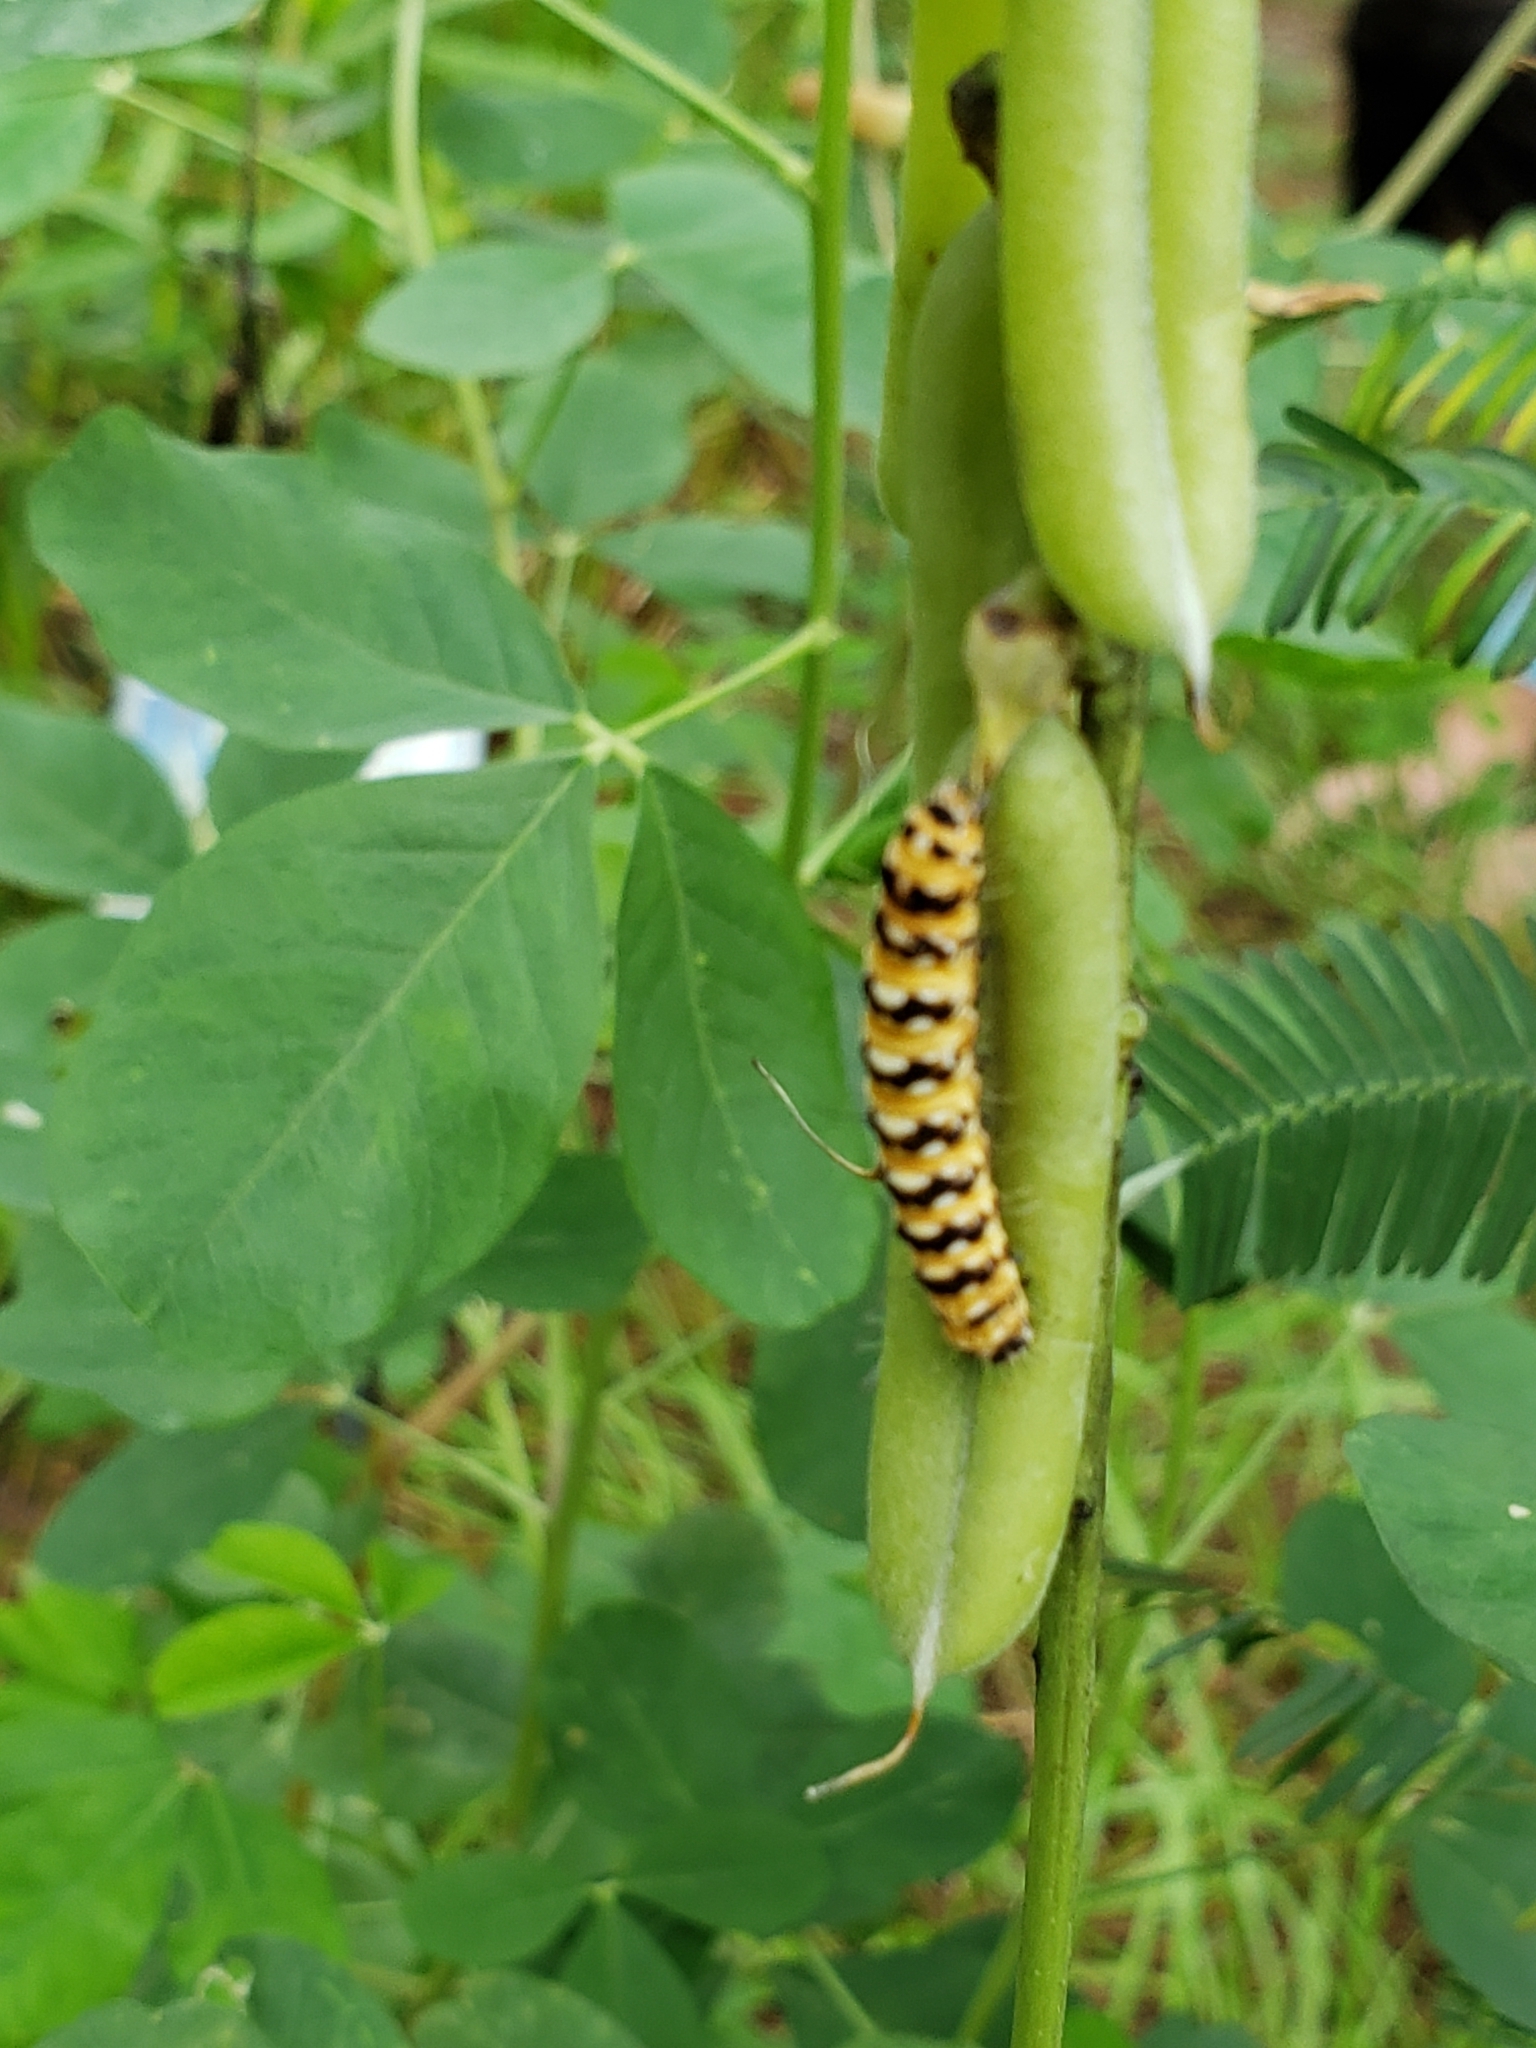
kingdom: Animalia
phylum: Arthropoda
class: Insecta
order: Lepidoptera
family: Erebidae
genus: Utetheisa
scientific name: Utetheisa ornatrix
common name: Beautiful utetheisa
